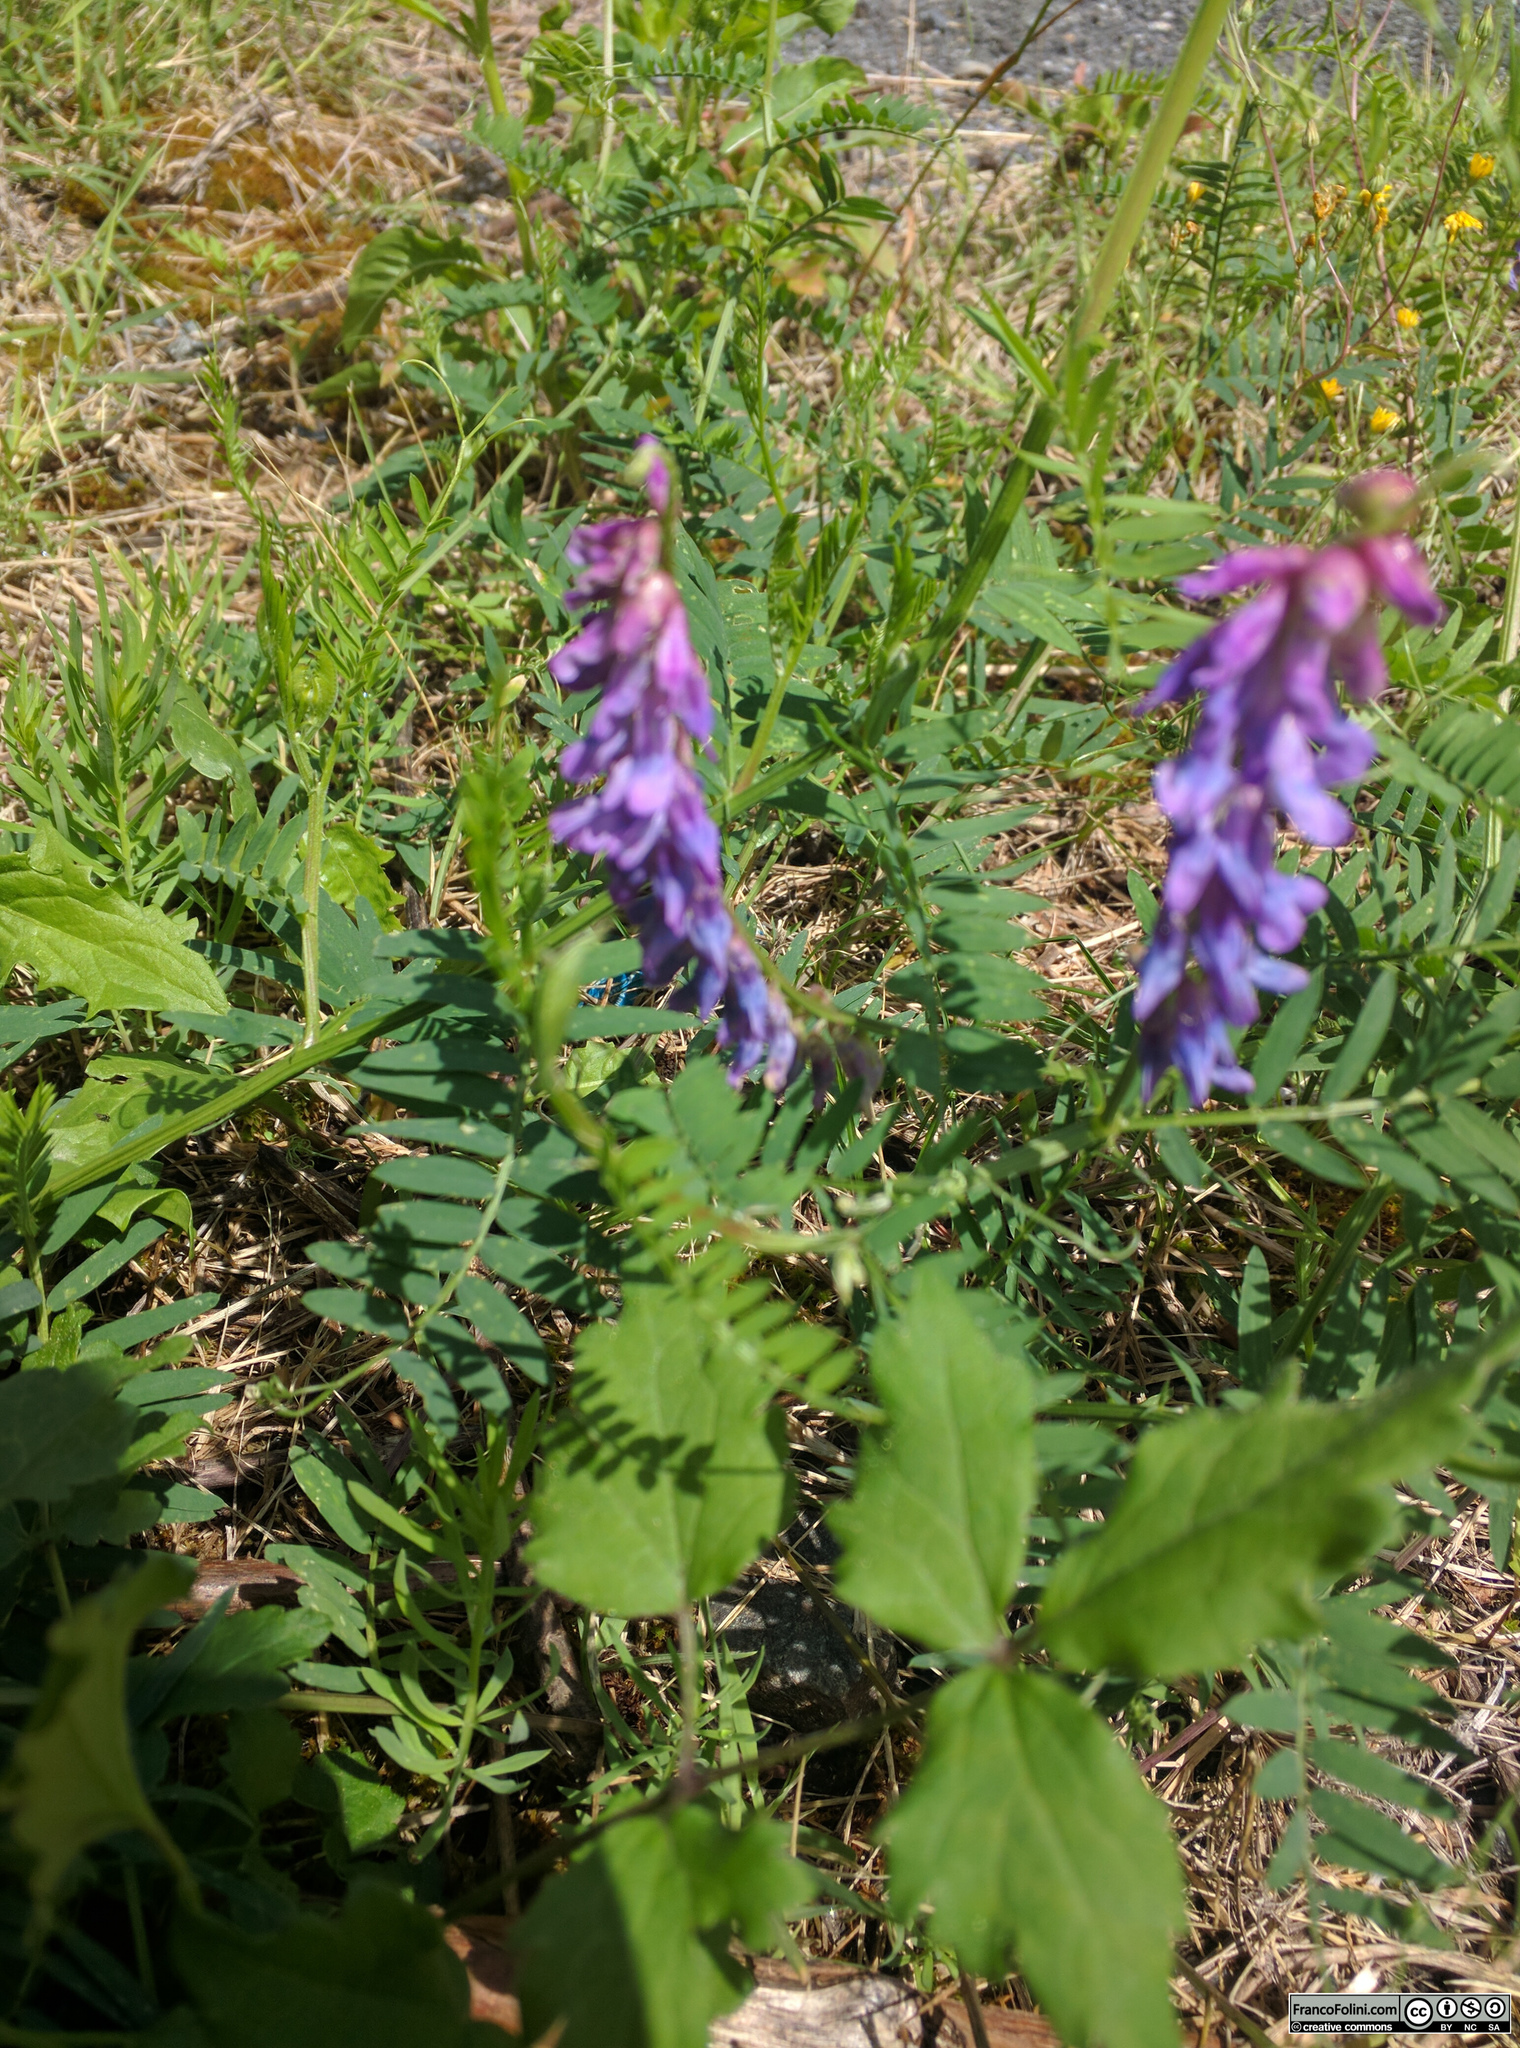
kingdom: Plantae
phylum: Tracheophyta
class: Magnoliopsida
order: Fabales
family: Fabaceae
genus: Vicia
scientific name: Vicia cracca
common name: Bird vetch
